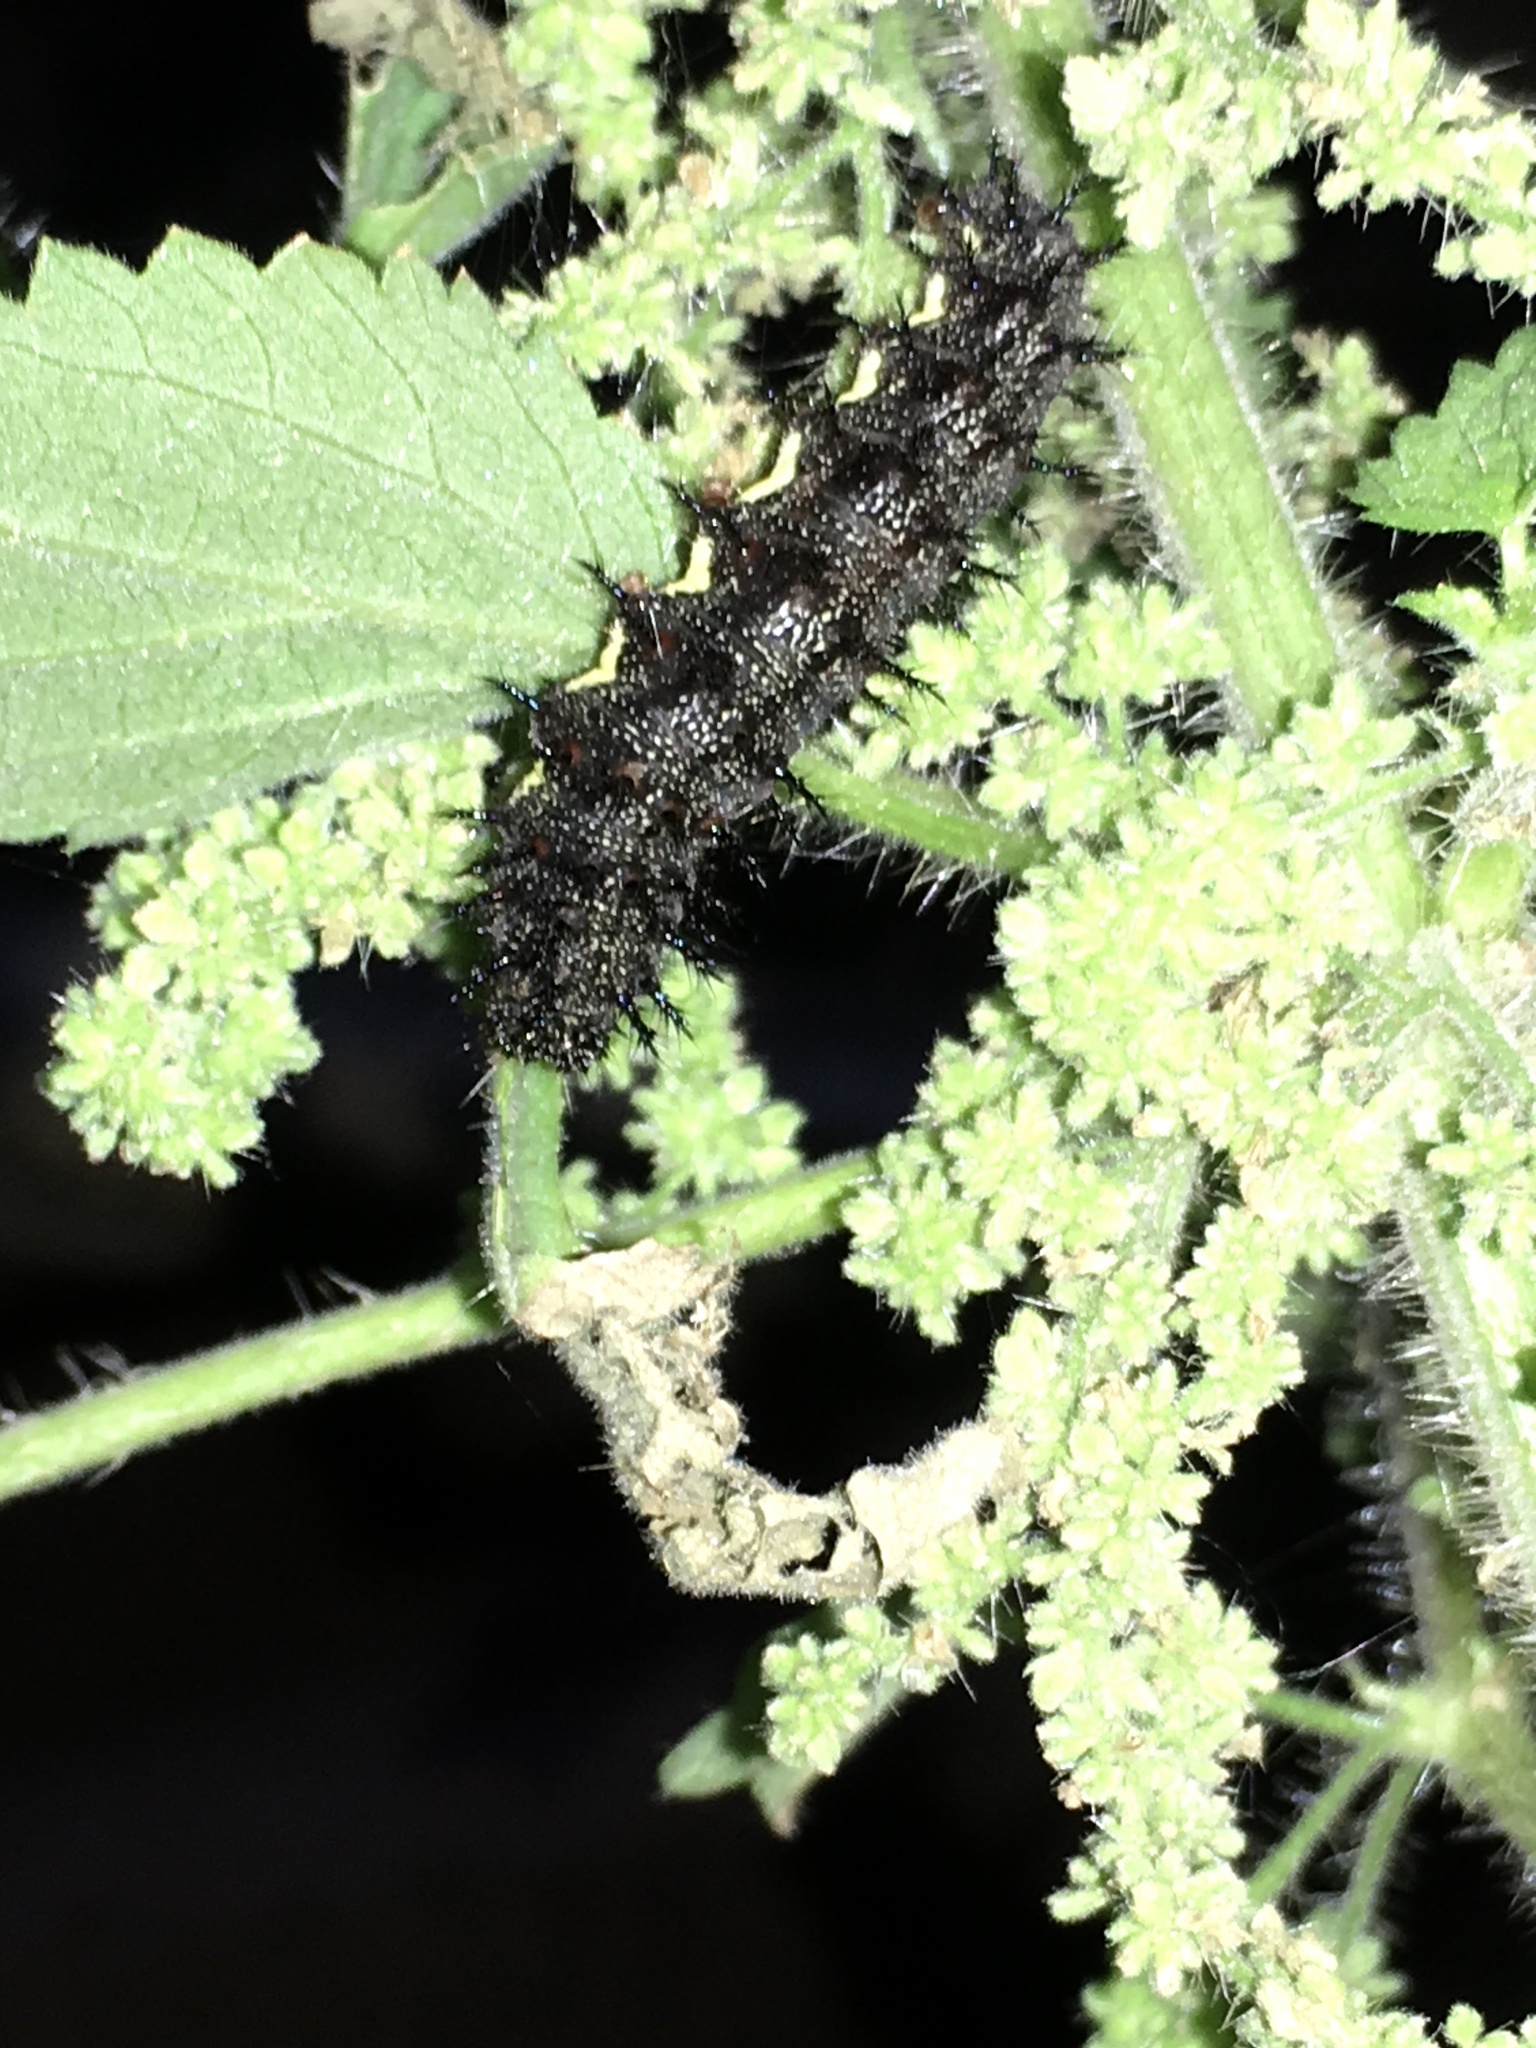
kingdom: Animalia
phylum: Arthropoda
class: Insecta
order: Lepidoptera
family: Nymphalidae
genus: Vanessa
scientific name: Vanessa atalanta
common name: Red admiral
